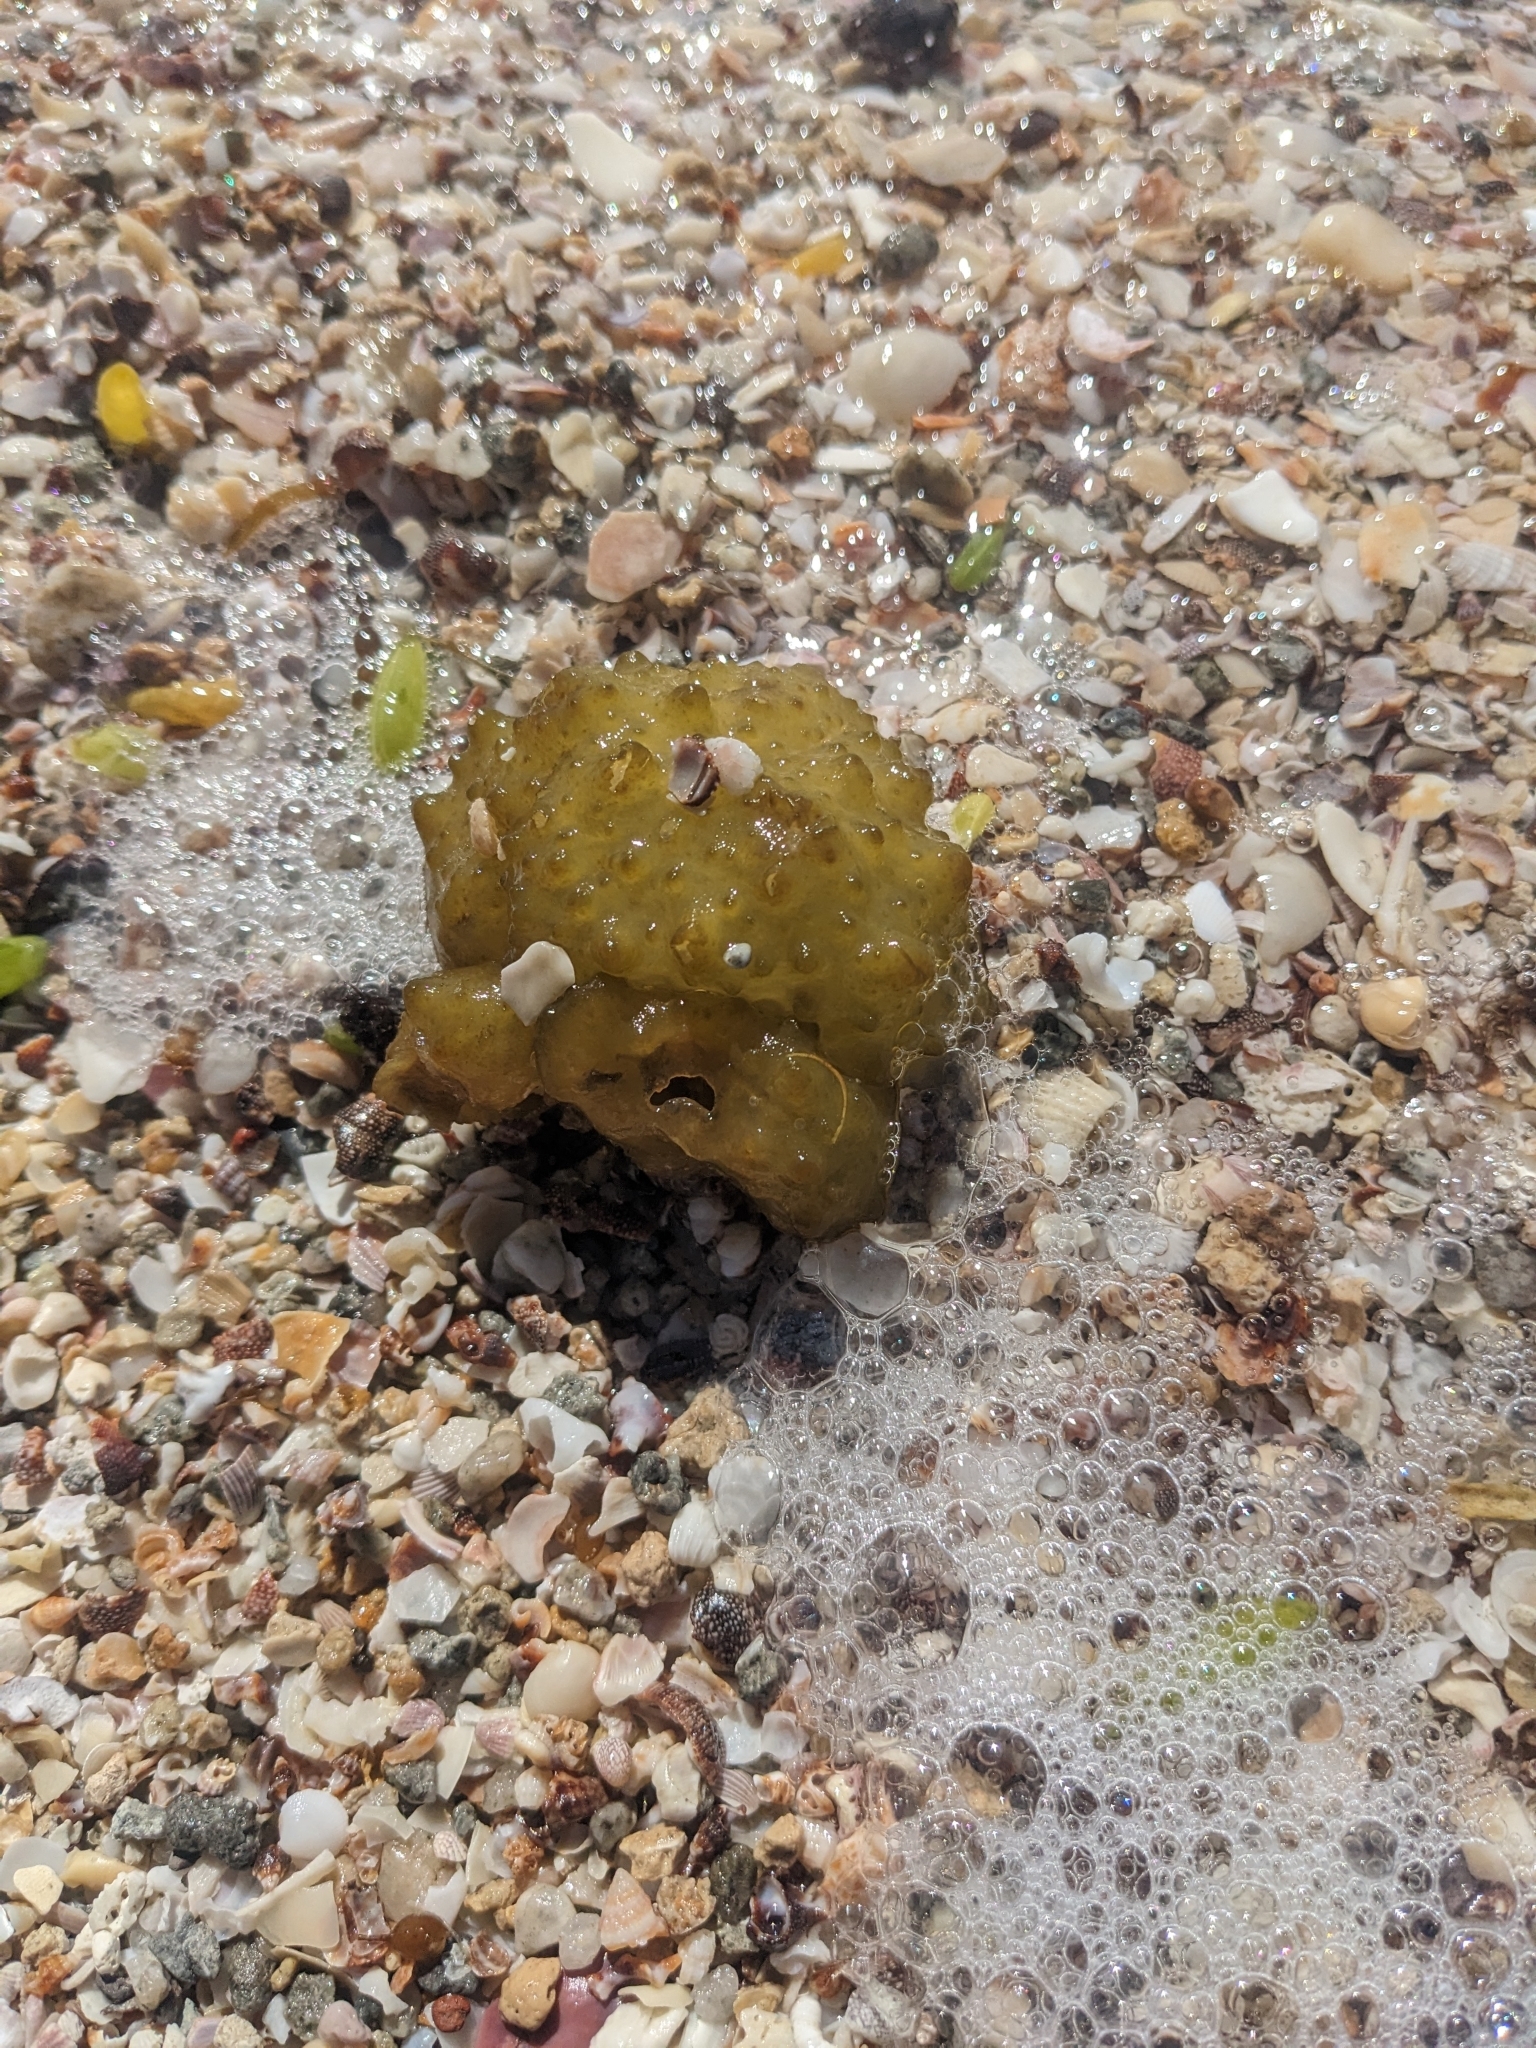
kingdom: Chromista
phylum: Ochrophyta
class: Phaeophyceae
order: Scytosiphonales
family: Scytosiphonaceae
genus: Colpomenia
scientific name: Colpomenia
